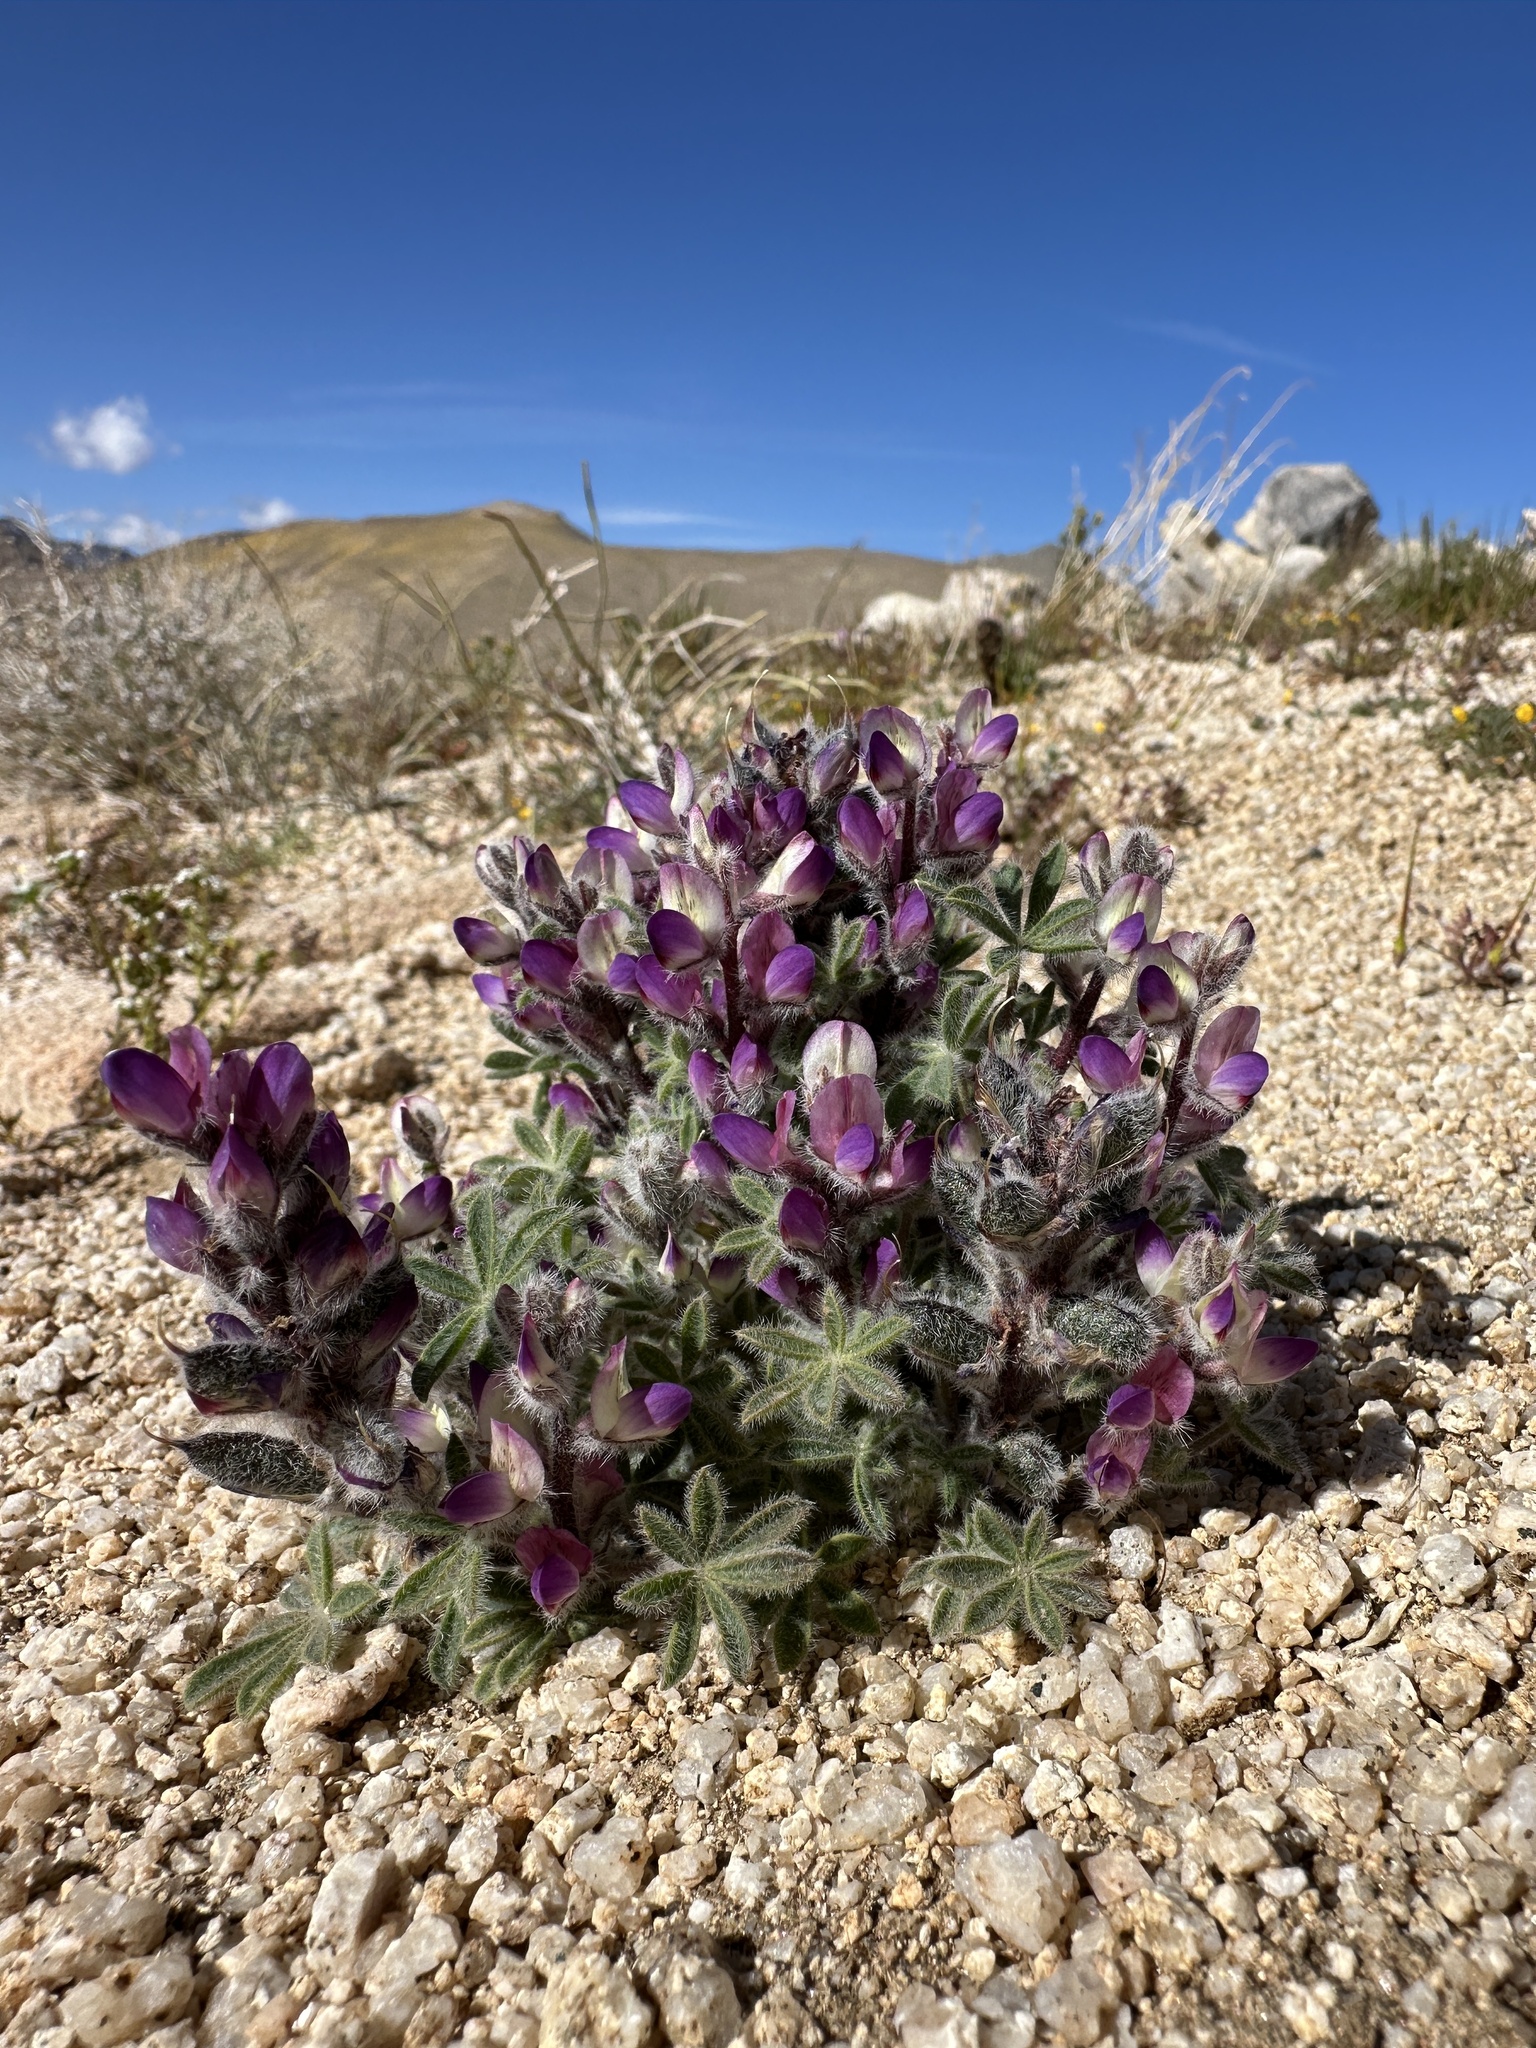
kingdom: Plantae
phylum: Tracheophyta
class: Magnoliopsida
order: Fabales
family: Fabaceae
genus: Lupinus
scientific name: Lupinus concinnus
